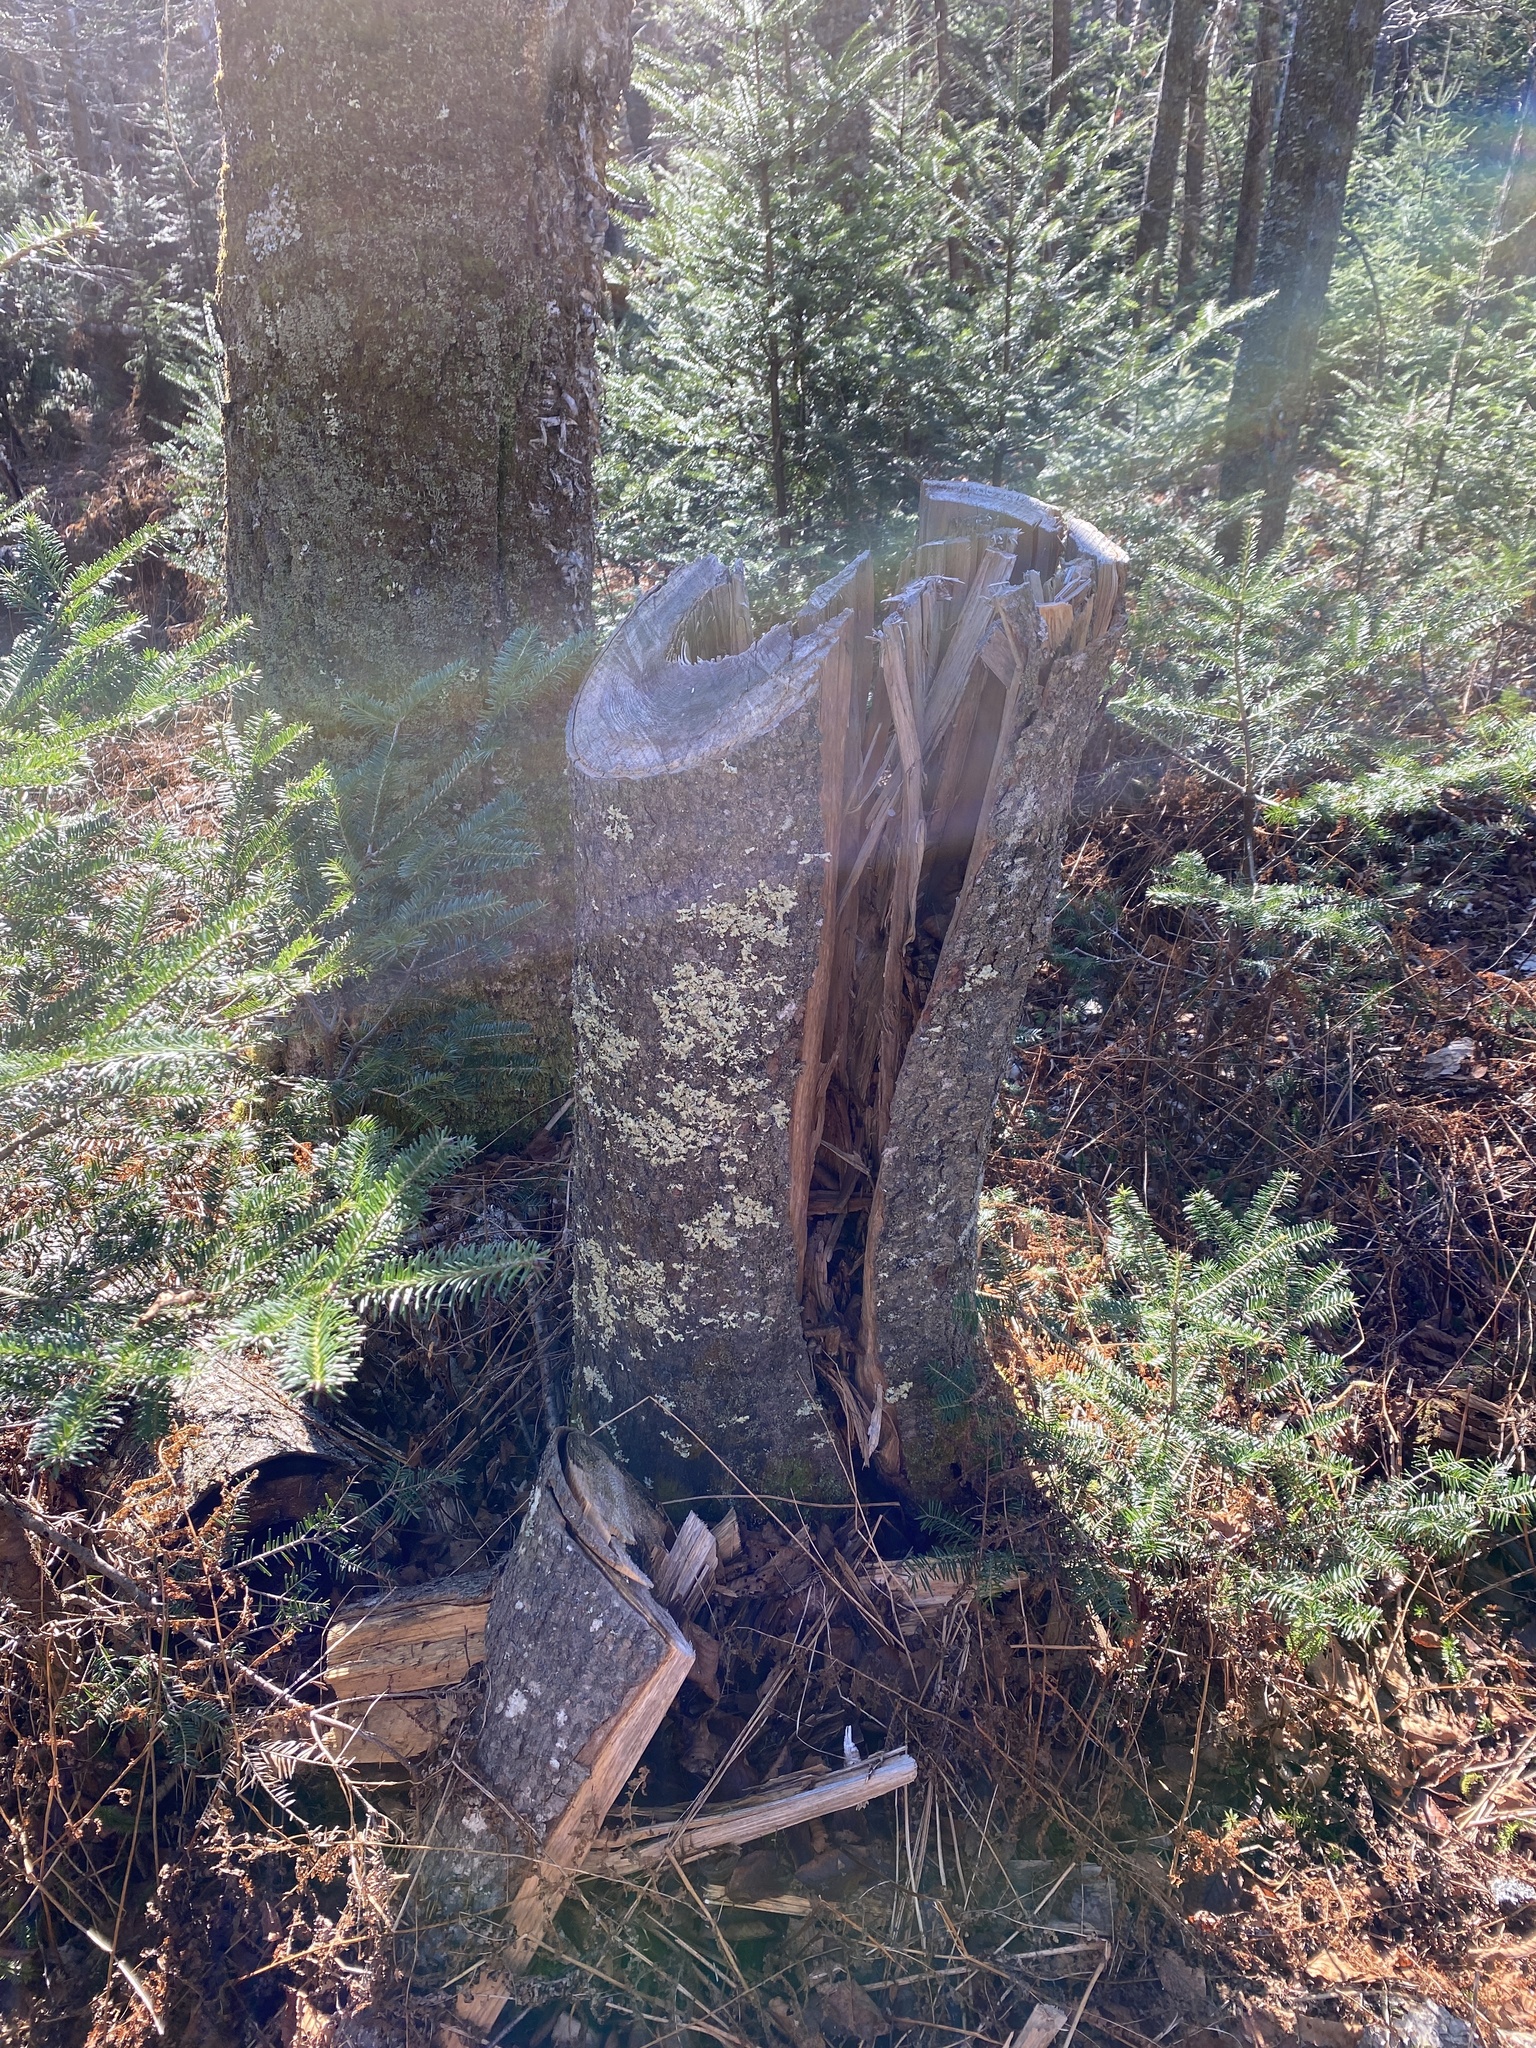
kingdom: Plantae
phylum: Tracheophyta
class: Pinopsida
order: Pinales
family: Pinaceae
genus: Abies
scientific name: Abies balsamea
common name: Balsam fir
